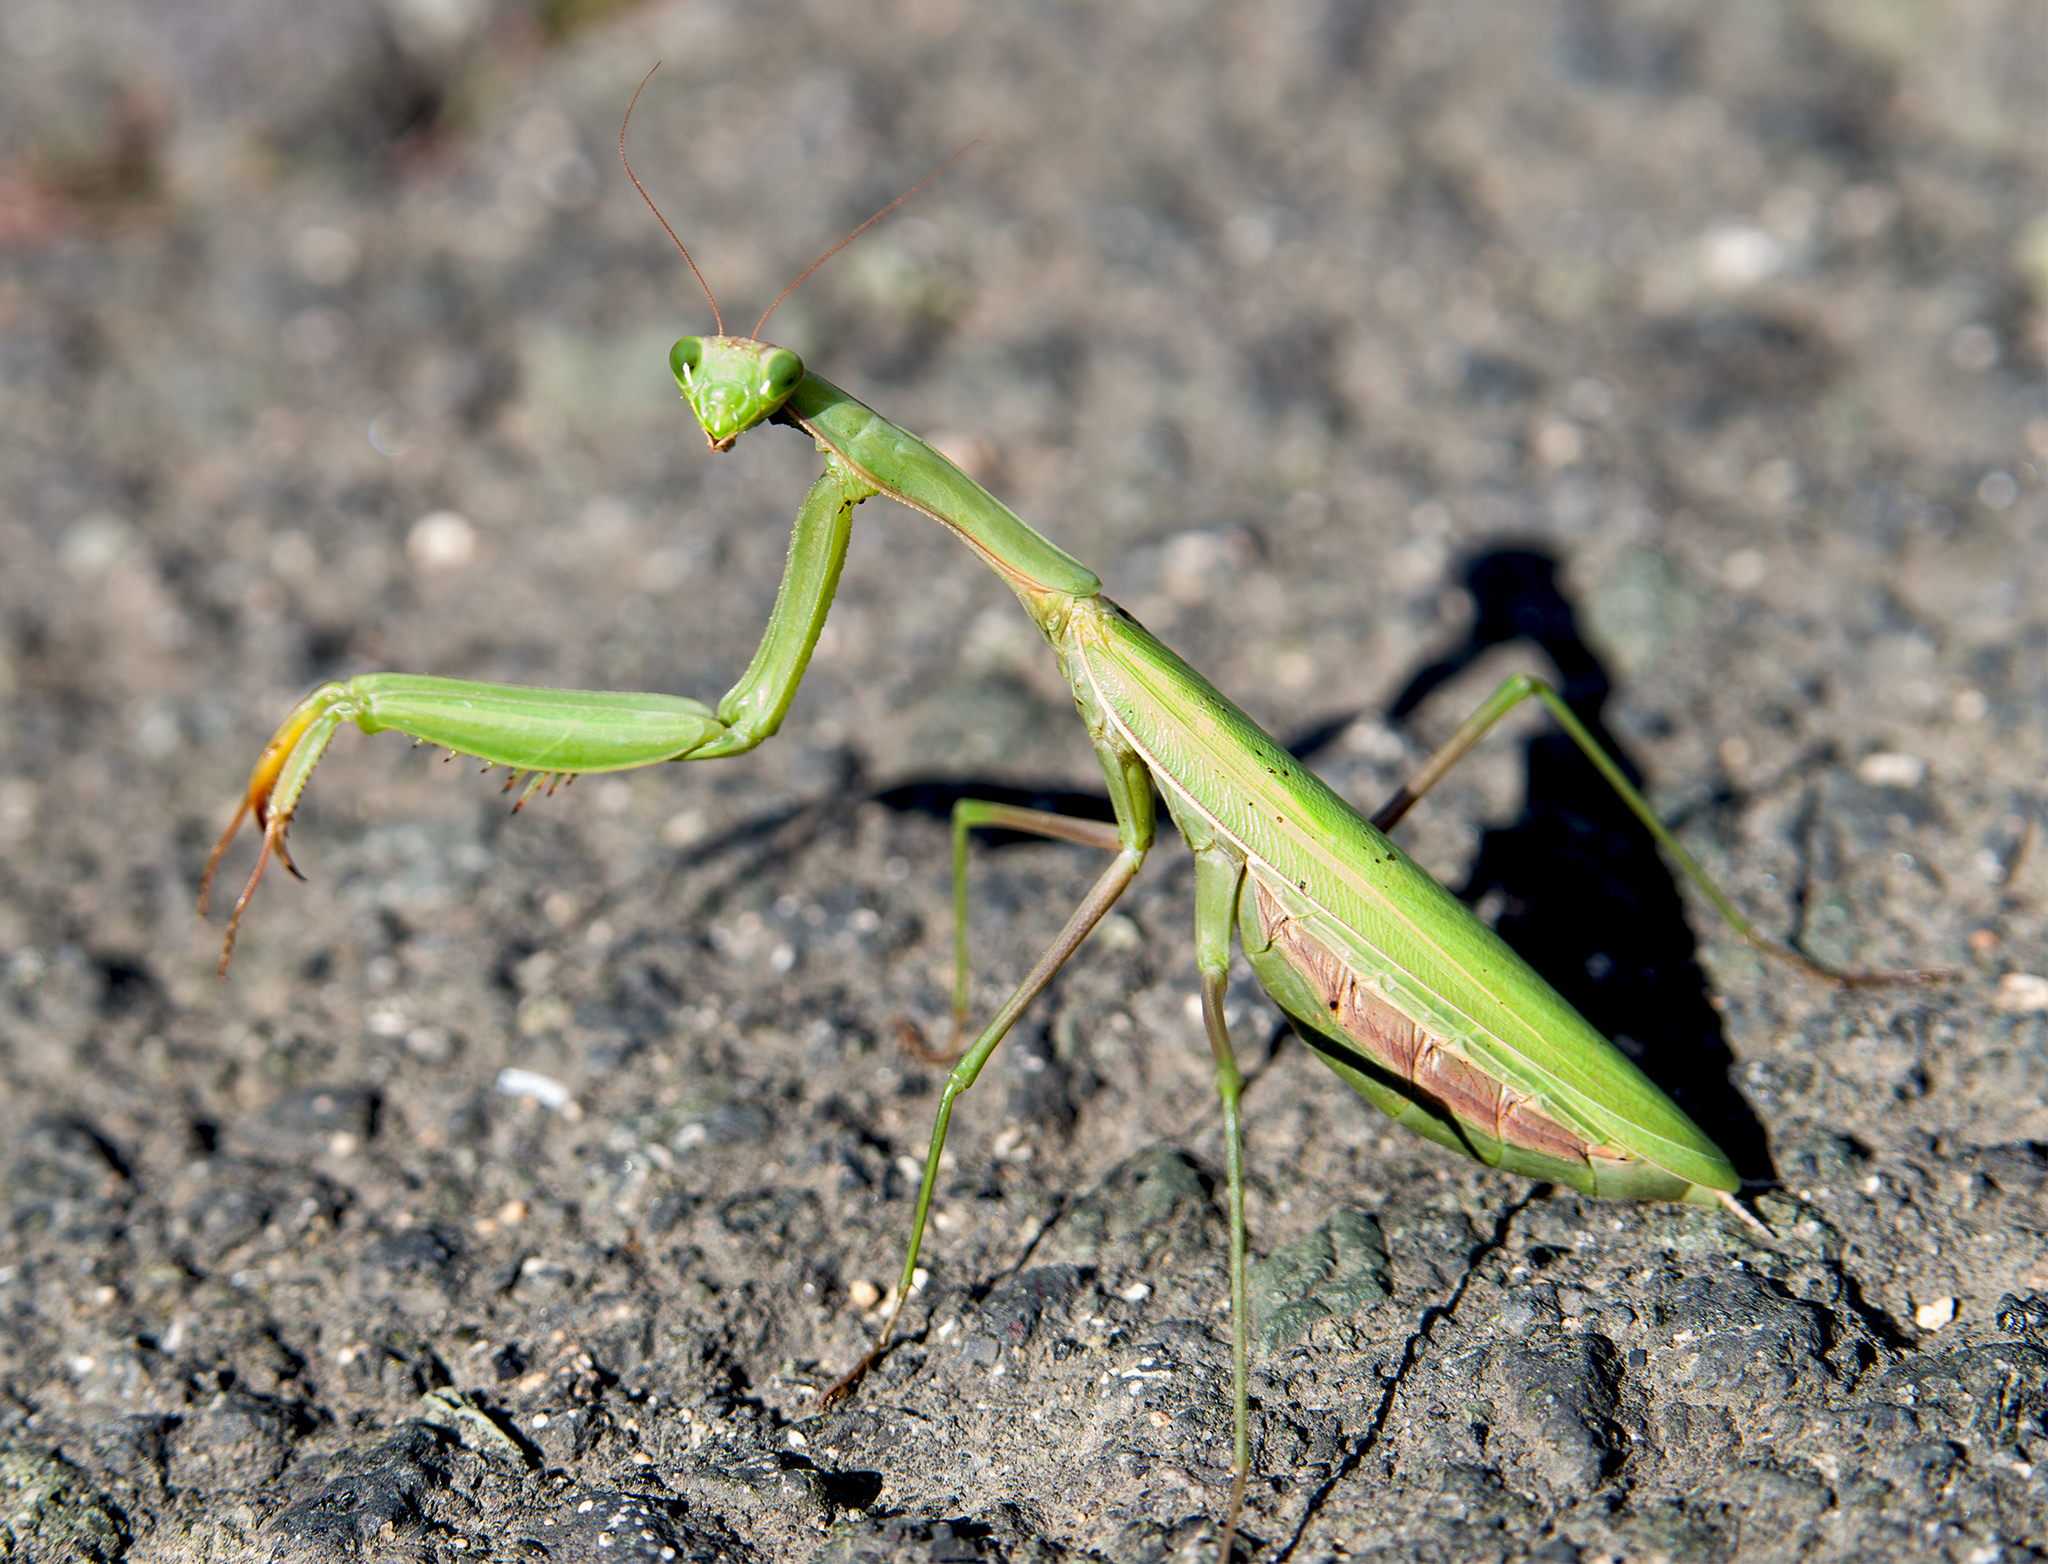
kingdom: Animalia
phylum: Arthropoda
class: Insecta
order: Mantodea
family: Mantidae
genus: Mantis
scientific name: Mantis religiosa
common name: Praying mantis
